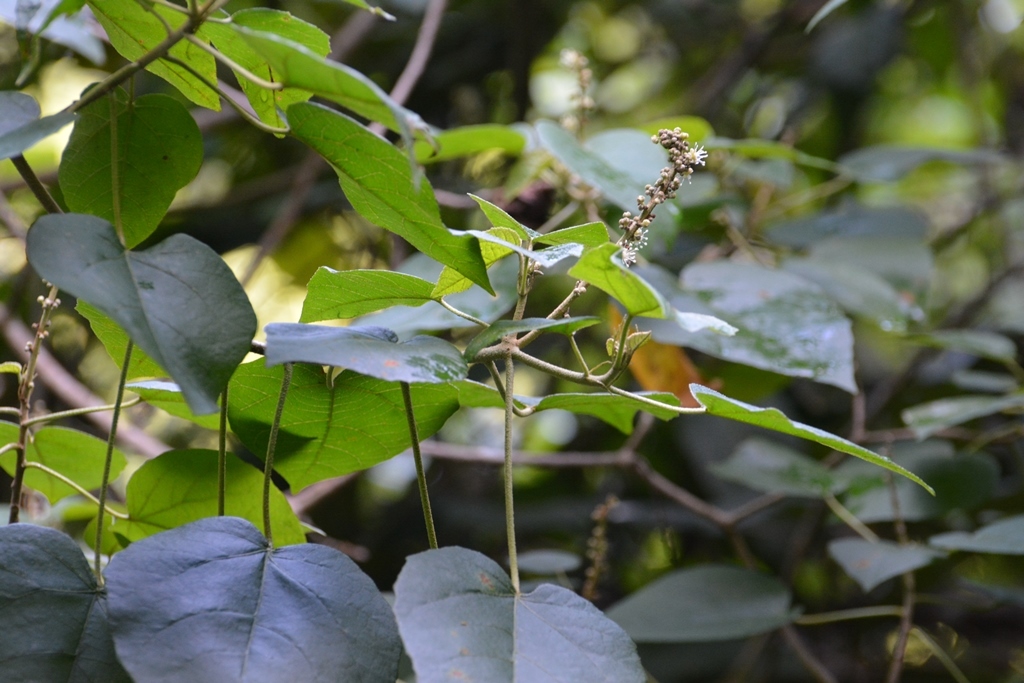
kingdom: Plantae
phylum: Tracheophyta
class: Magnoliopsida
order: Malpighiales
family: Euphorbiaceae
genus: Croton
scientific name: Croton francoanus
